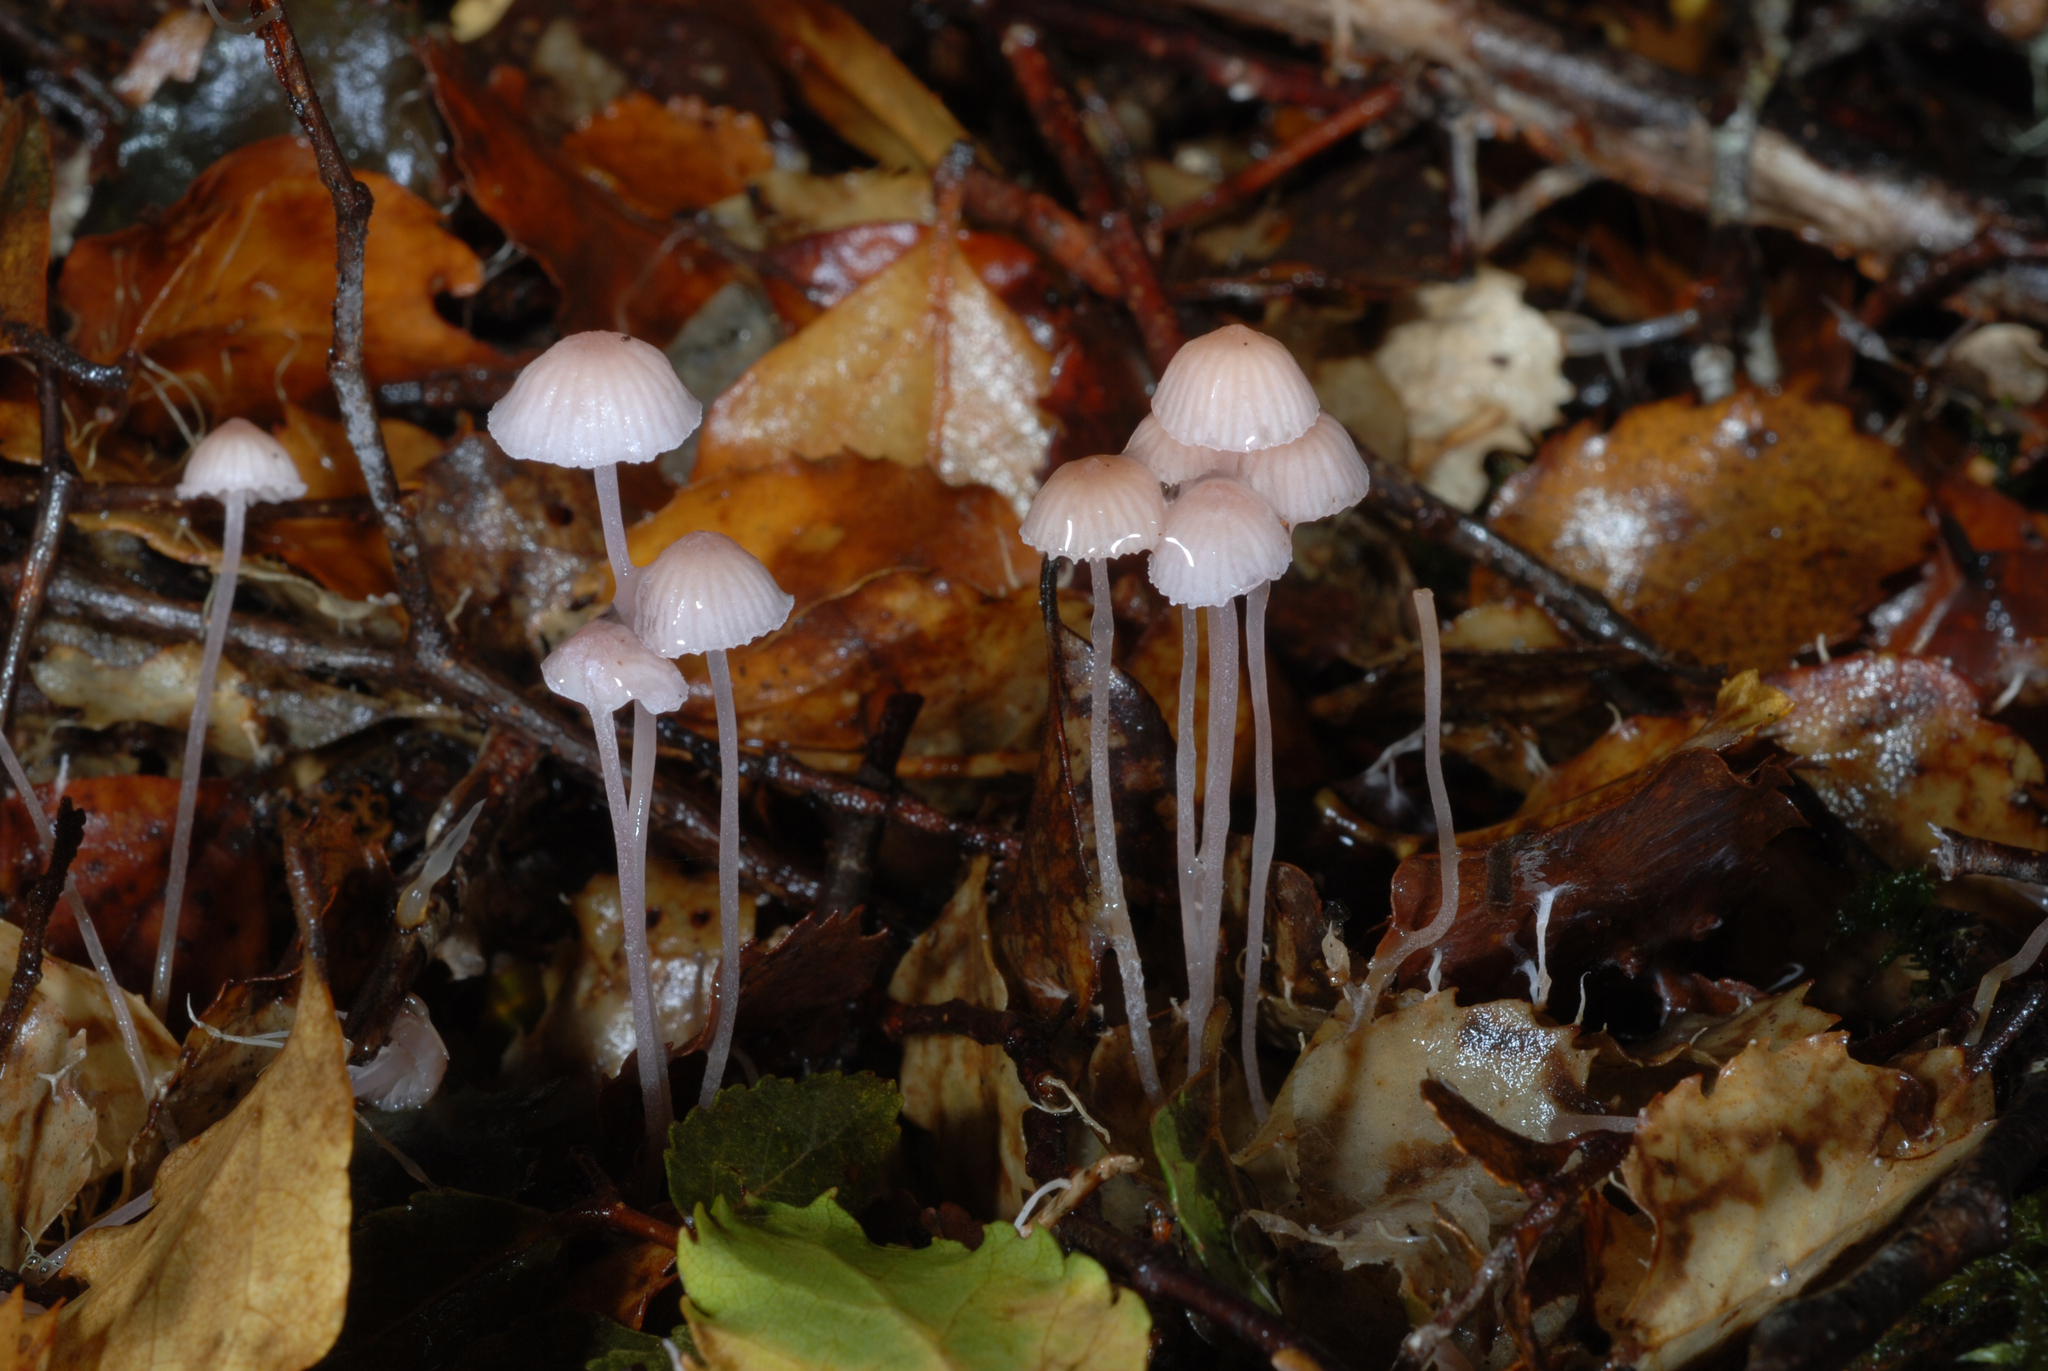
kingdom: Fungi
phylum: Basidiomycota
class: Agaricomycetes
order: Agaricales
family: Mycenaceae
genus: Mycena
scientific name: Mycena stevensoniae
